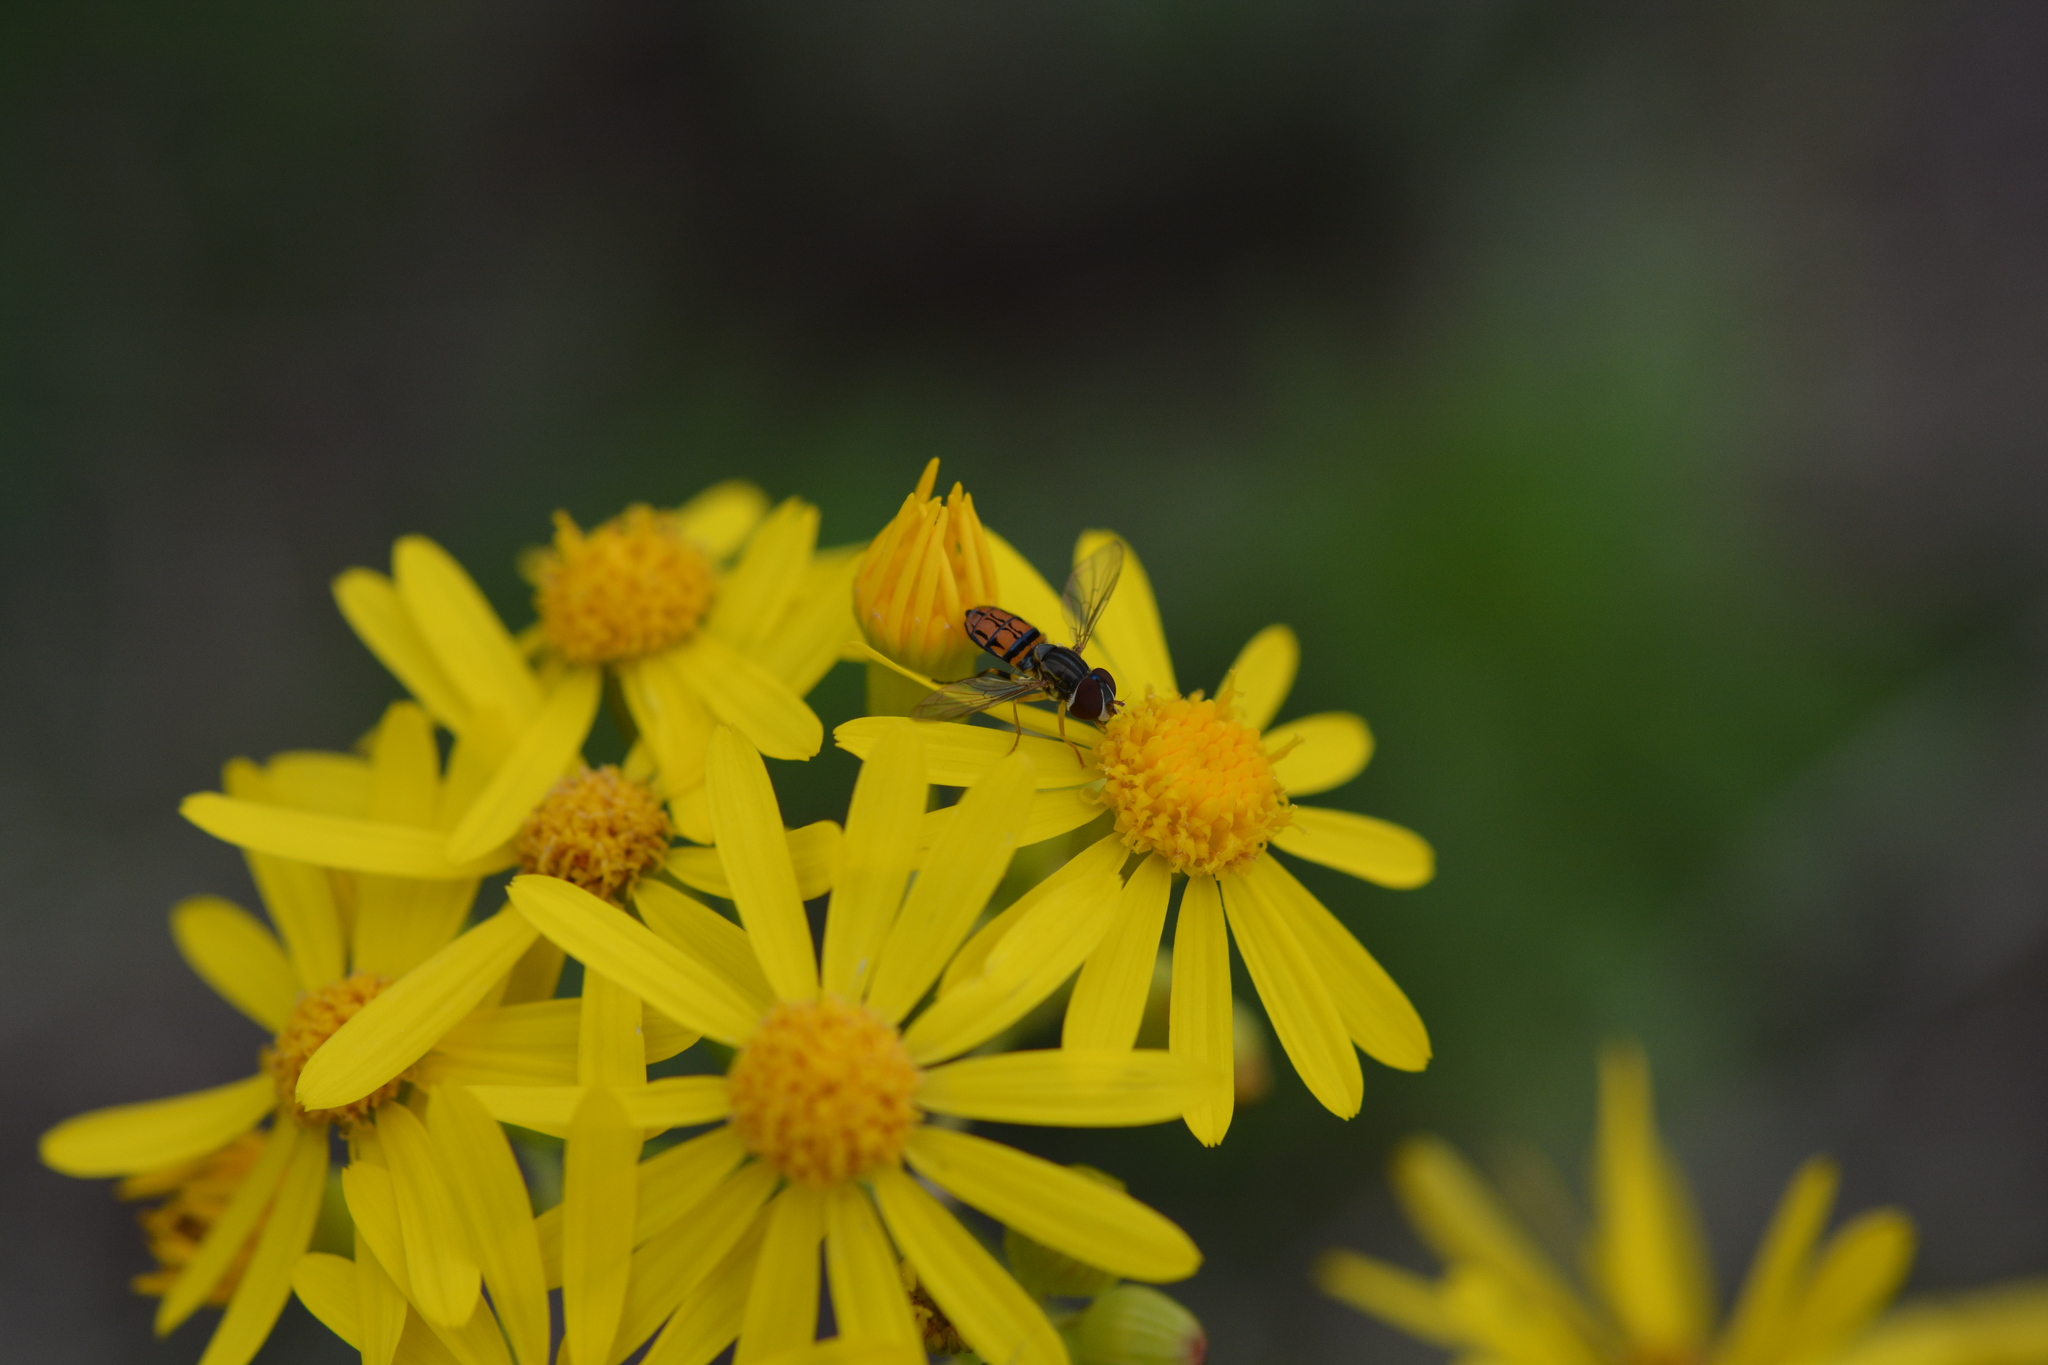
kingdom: Animalia
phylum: Arthropoda
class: Insecta
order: Diptera
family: Syrphidae
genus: Toxomerus
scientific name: Toxomerus boscii
